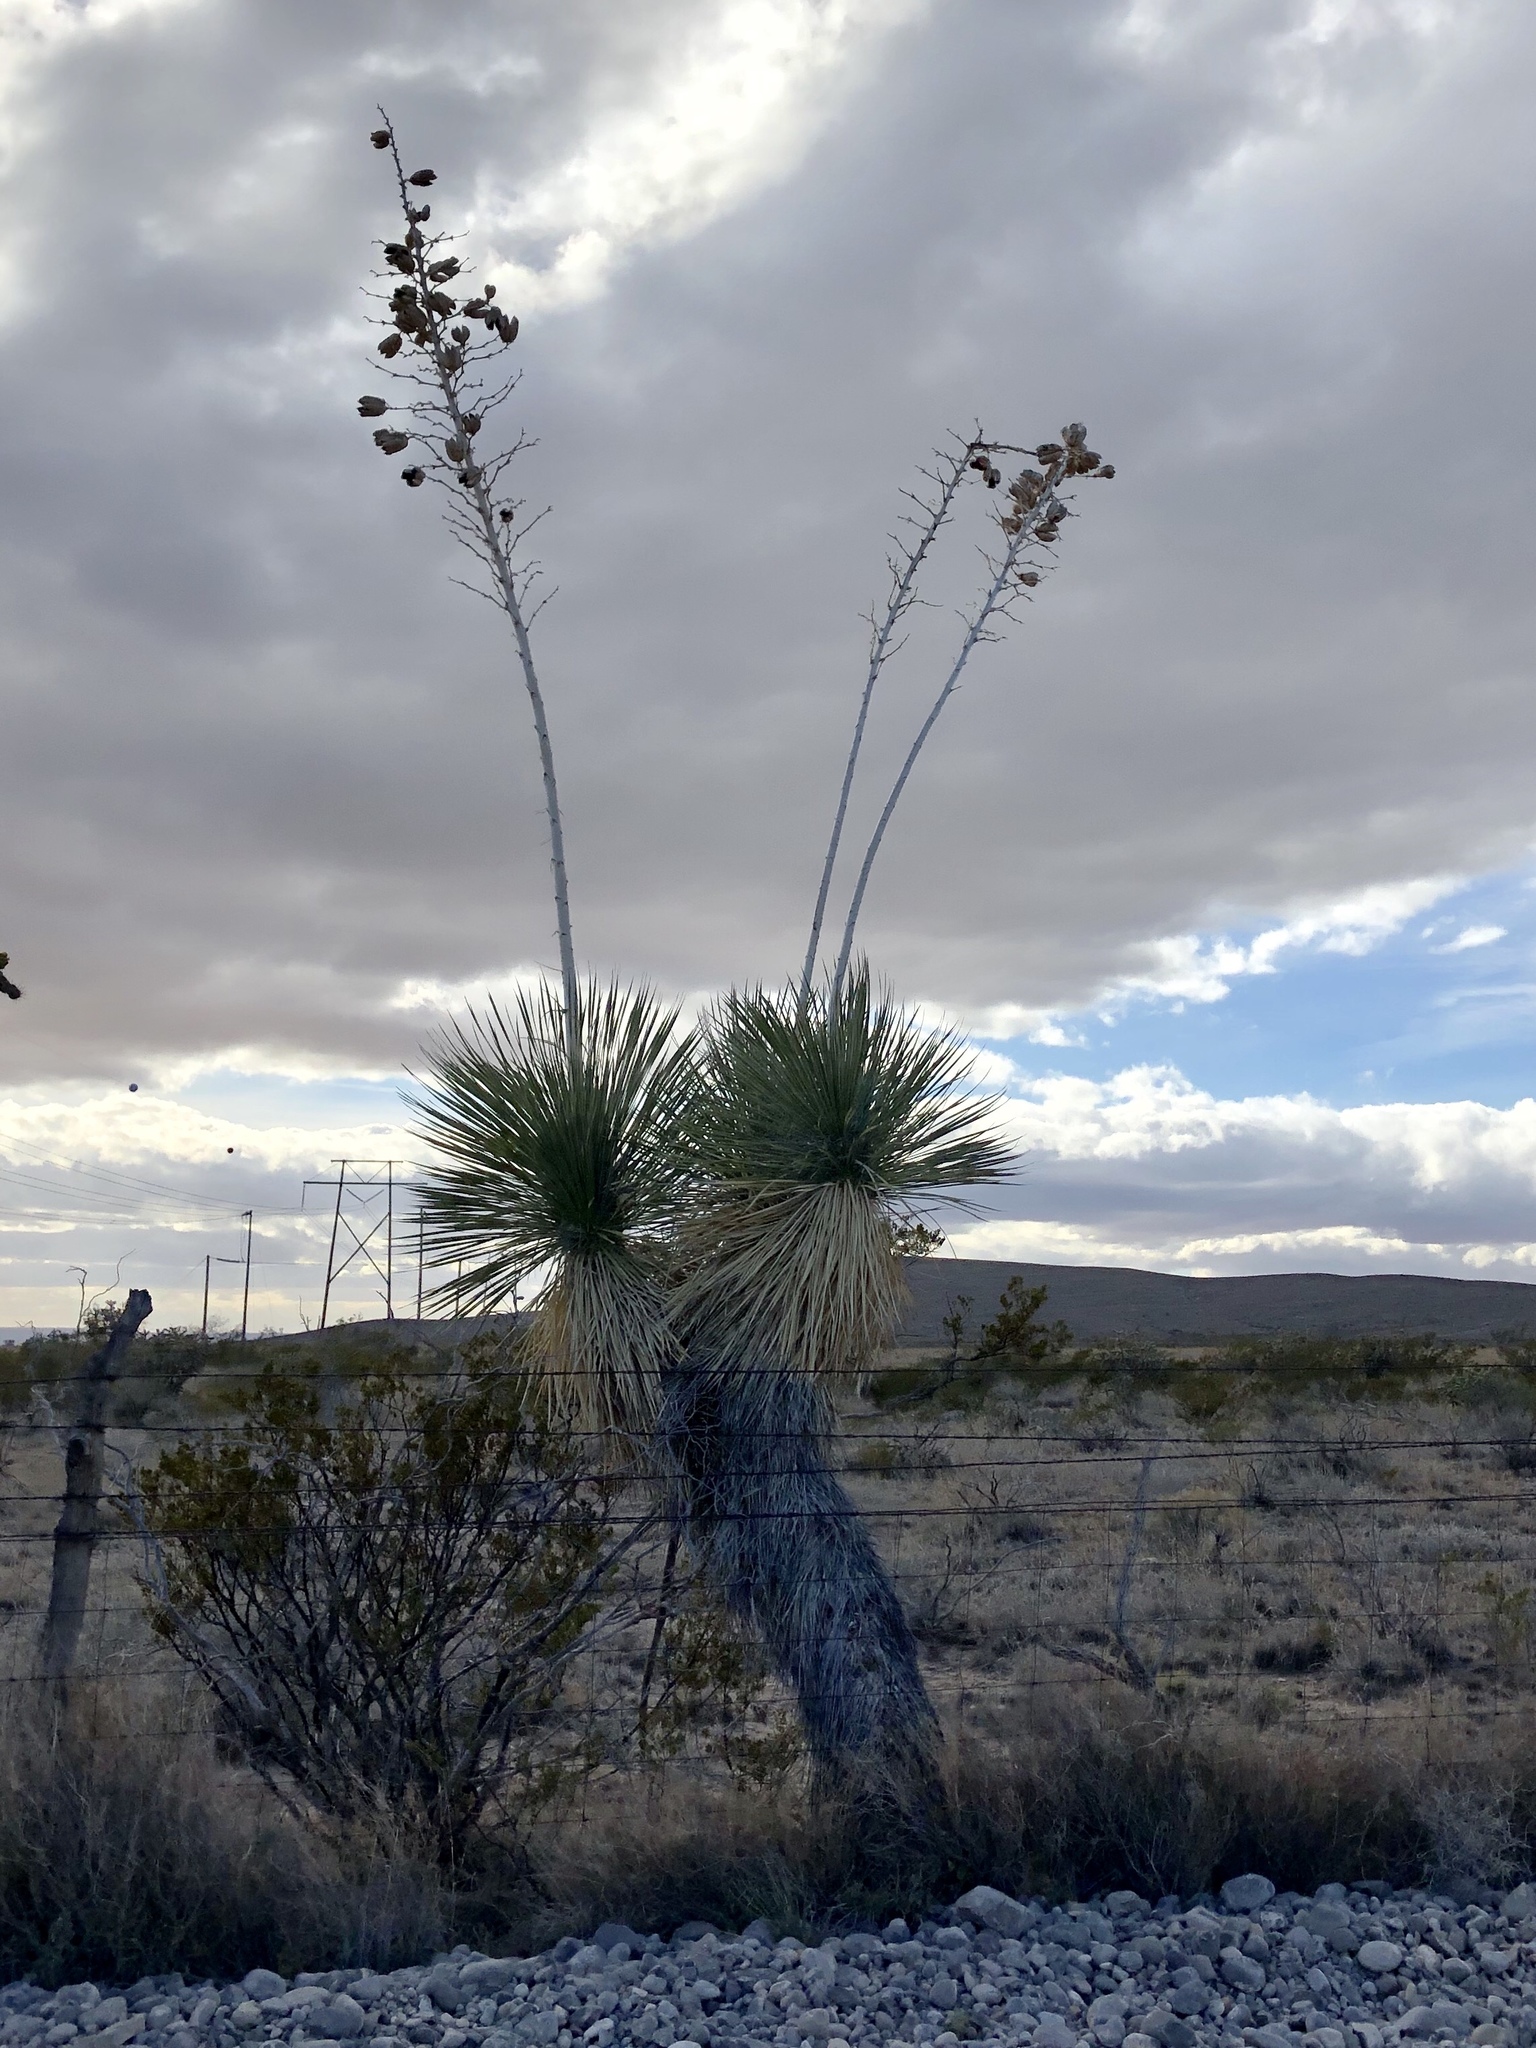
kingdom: Plantae
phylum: Tracheophyta
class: Liliopsida
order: Asparagales
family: Asparagaceae
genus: Yucca
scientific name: Yucca elata
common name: Palmella
